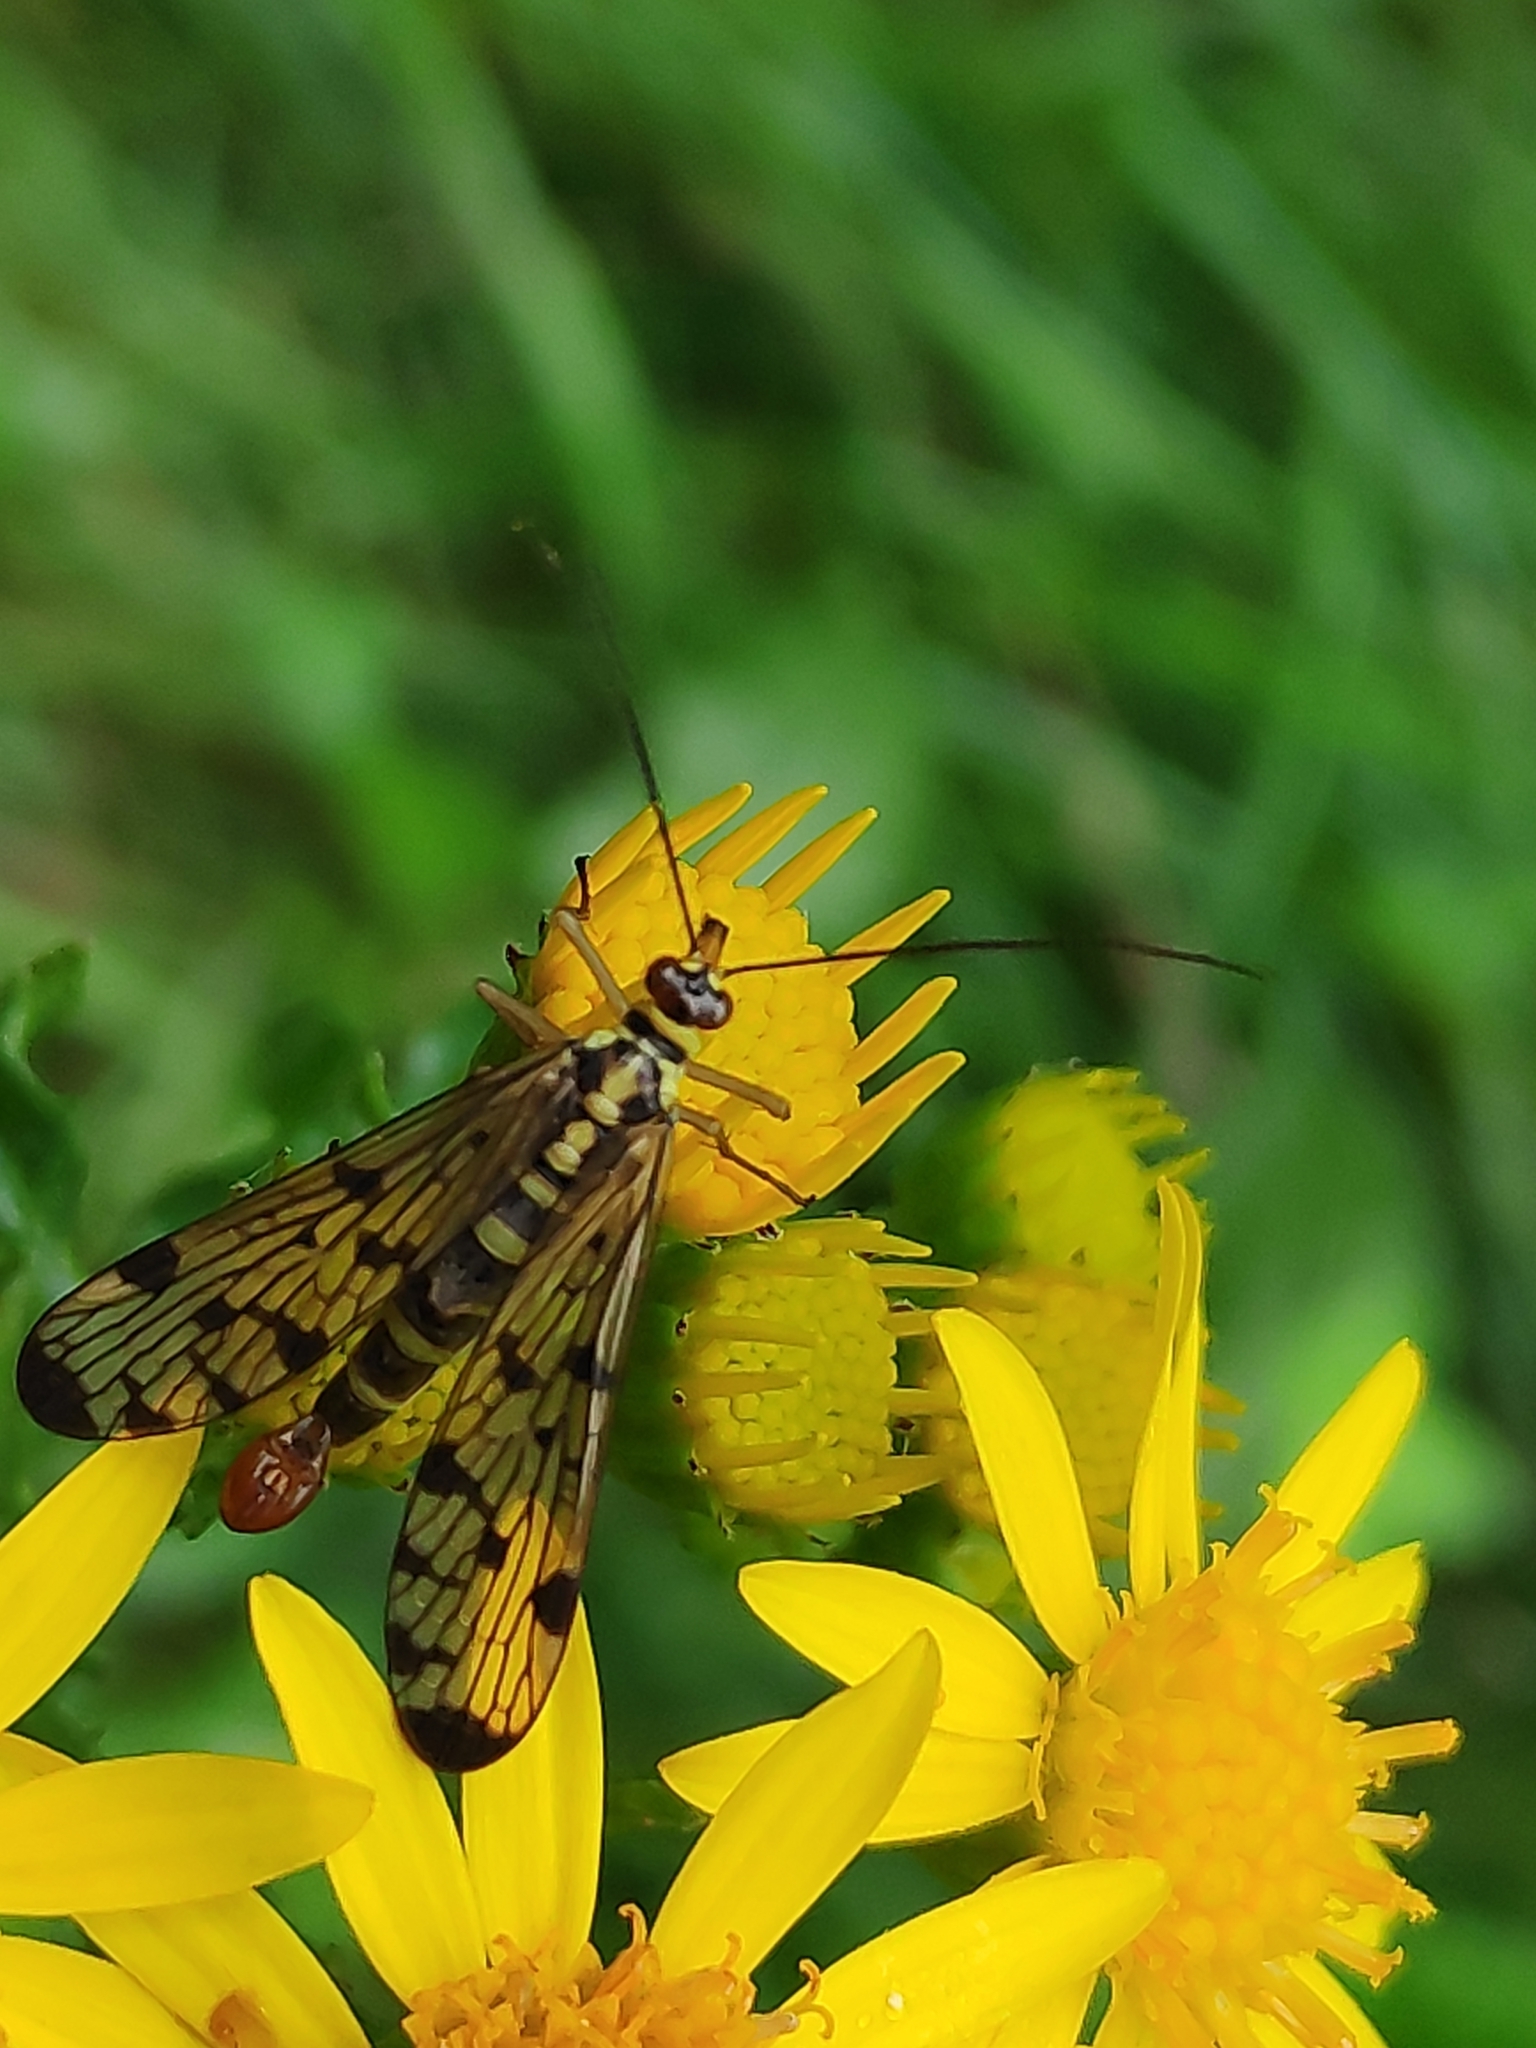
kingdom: Animalia
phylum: Arthropoda
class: Insecta
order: Mecoptera
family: Panorpidae
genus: Panorpa
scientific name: Panorpa germanica
